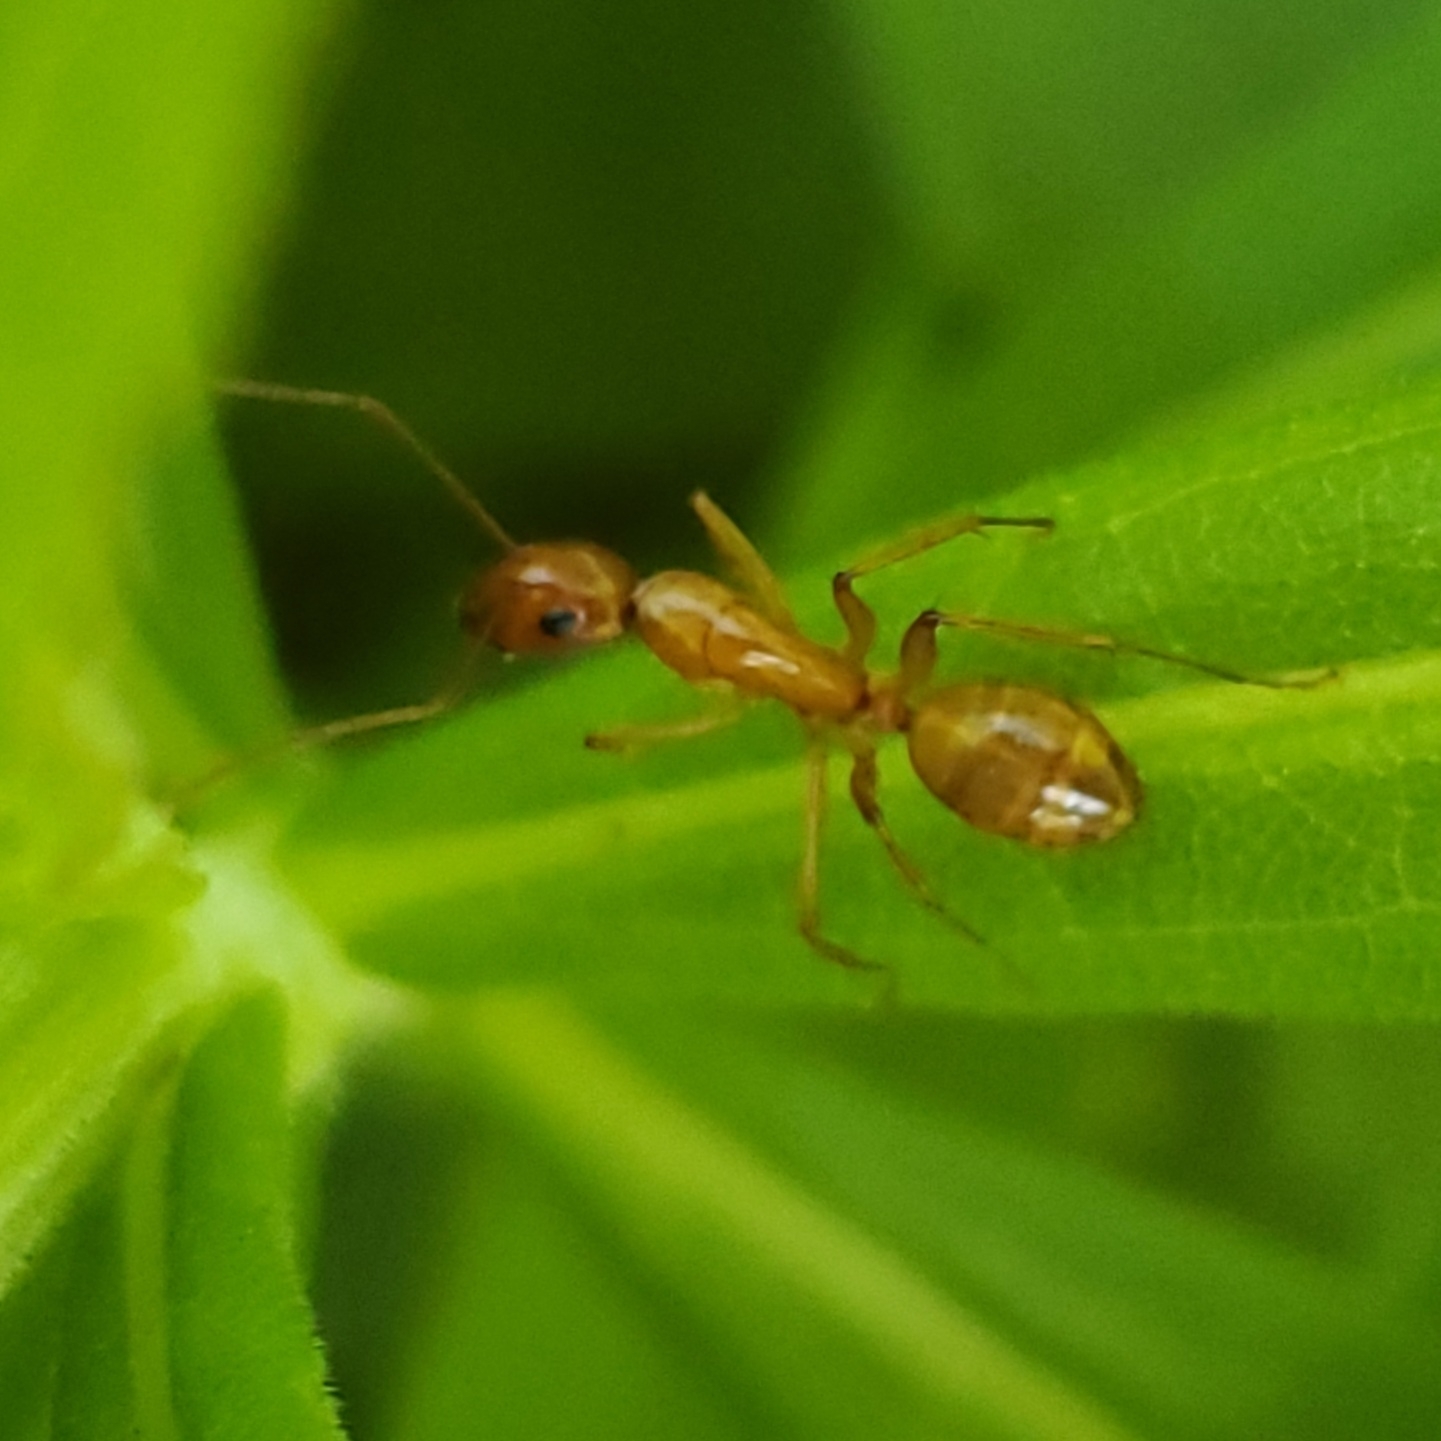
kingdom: Animalia
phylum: Arthropoda
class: Insecta
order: Hymenoptera
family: Formicidae
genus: Camponotus
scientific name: Camponotus castaneus
